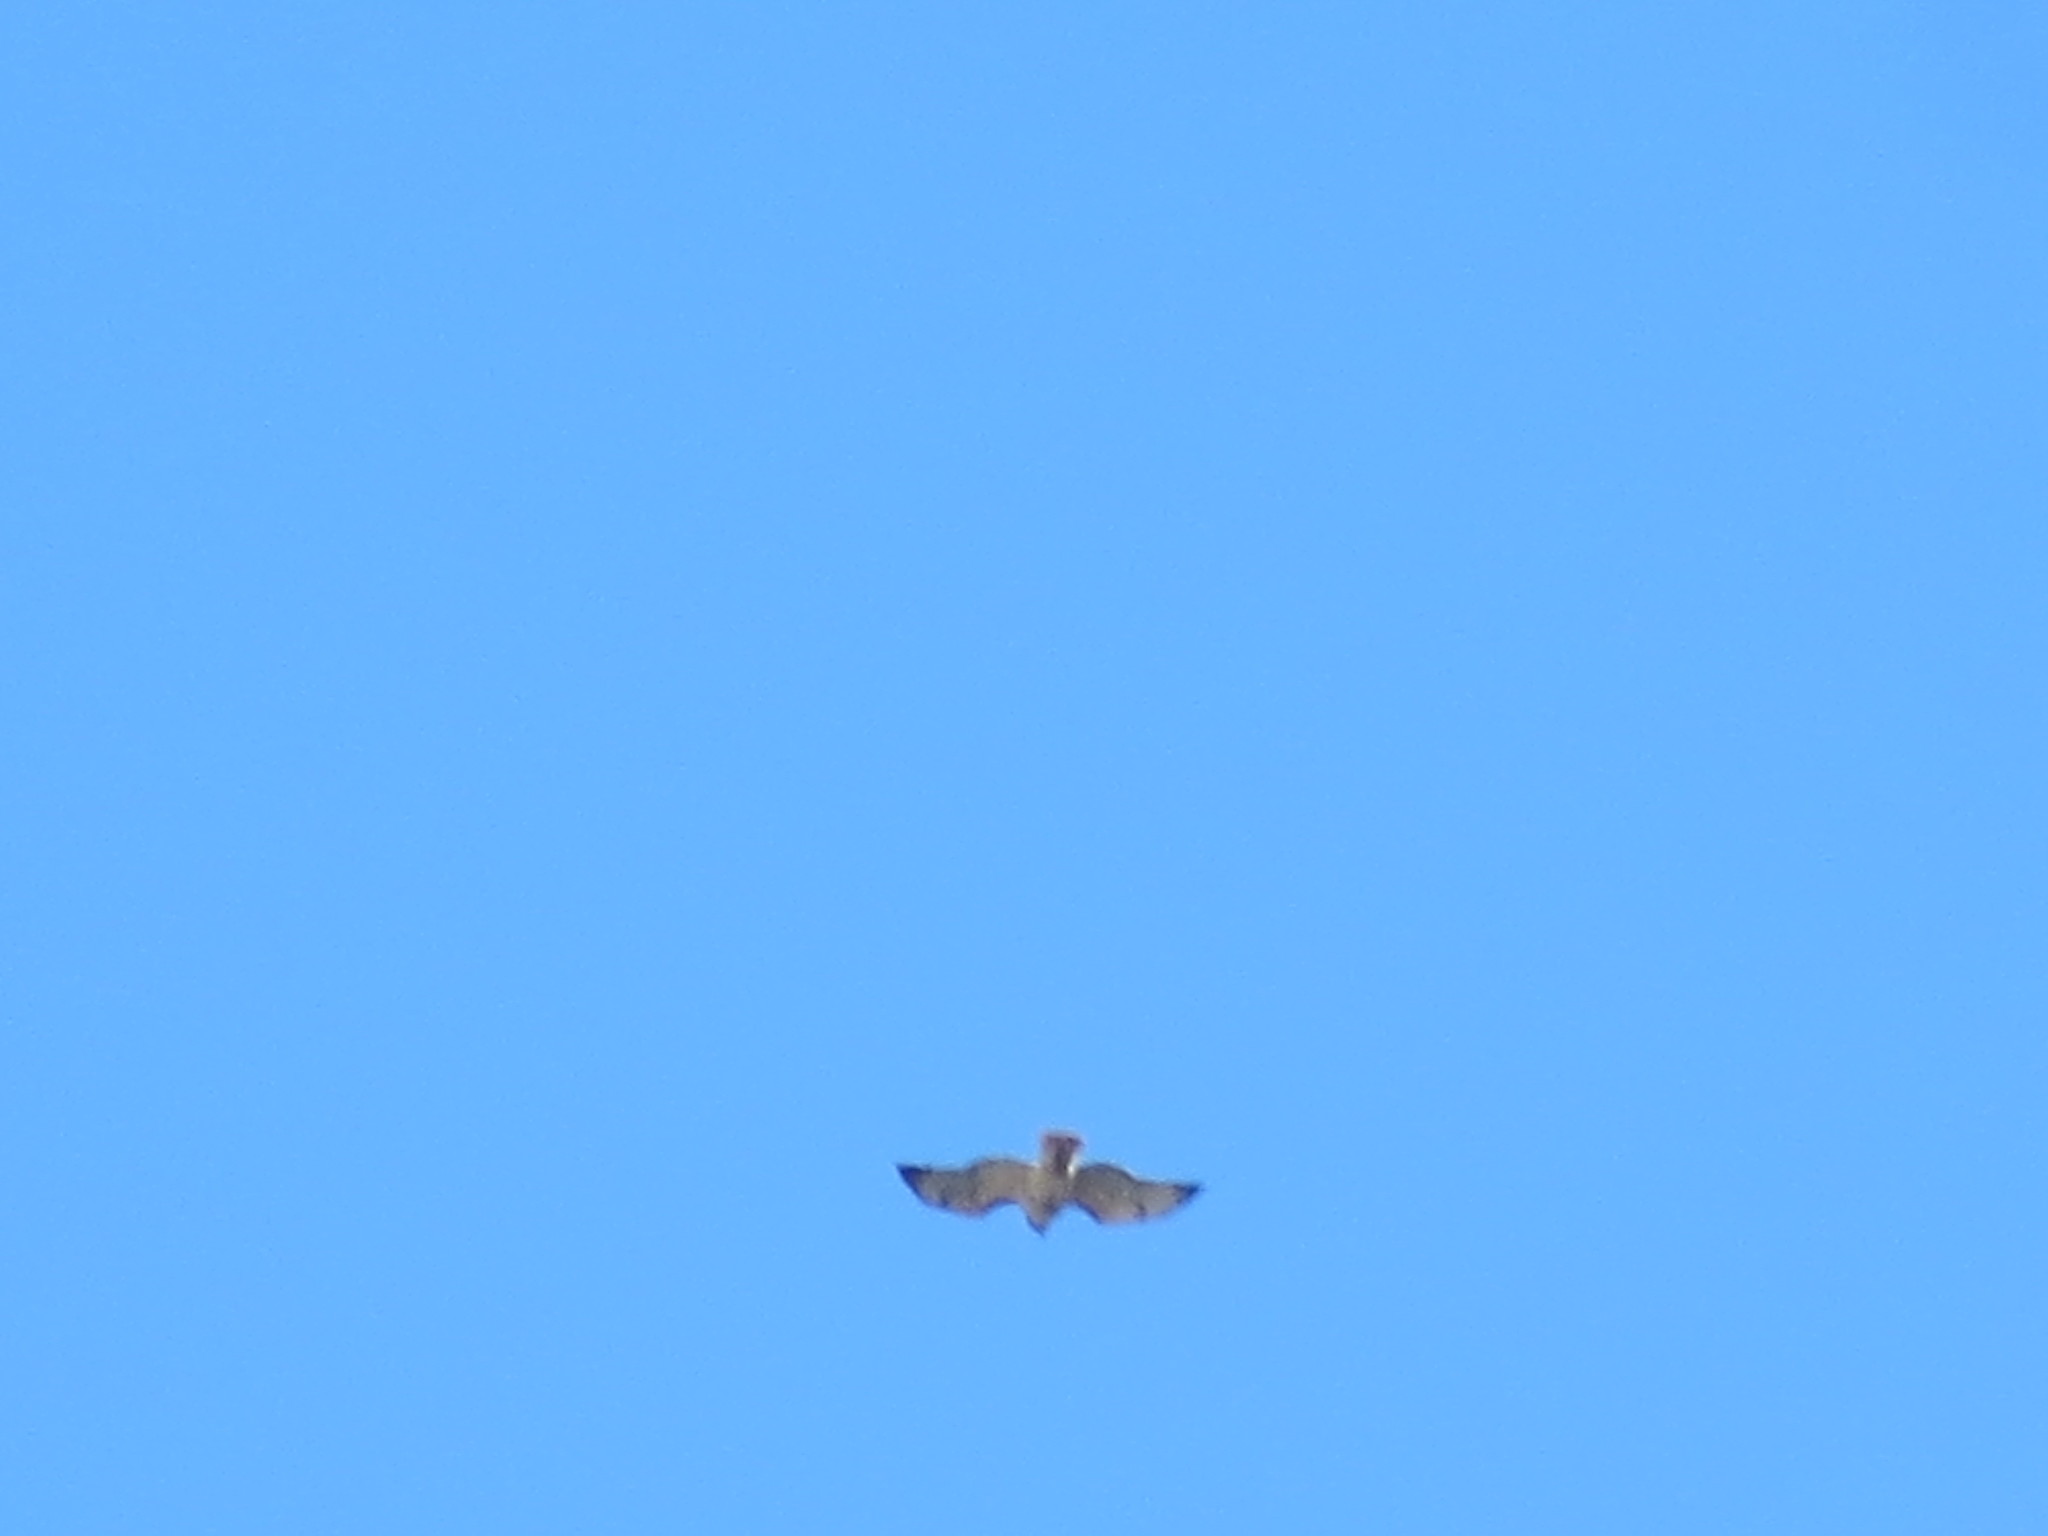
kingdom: Animalia
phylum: Chordata
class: Aves
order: Accipitriformes
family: Accipitridae
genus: Buteo
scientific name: Buteo jamaicensis
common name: Red-tailed hawk
